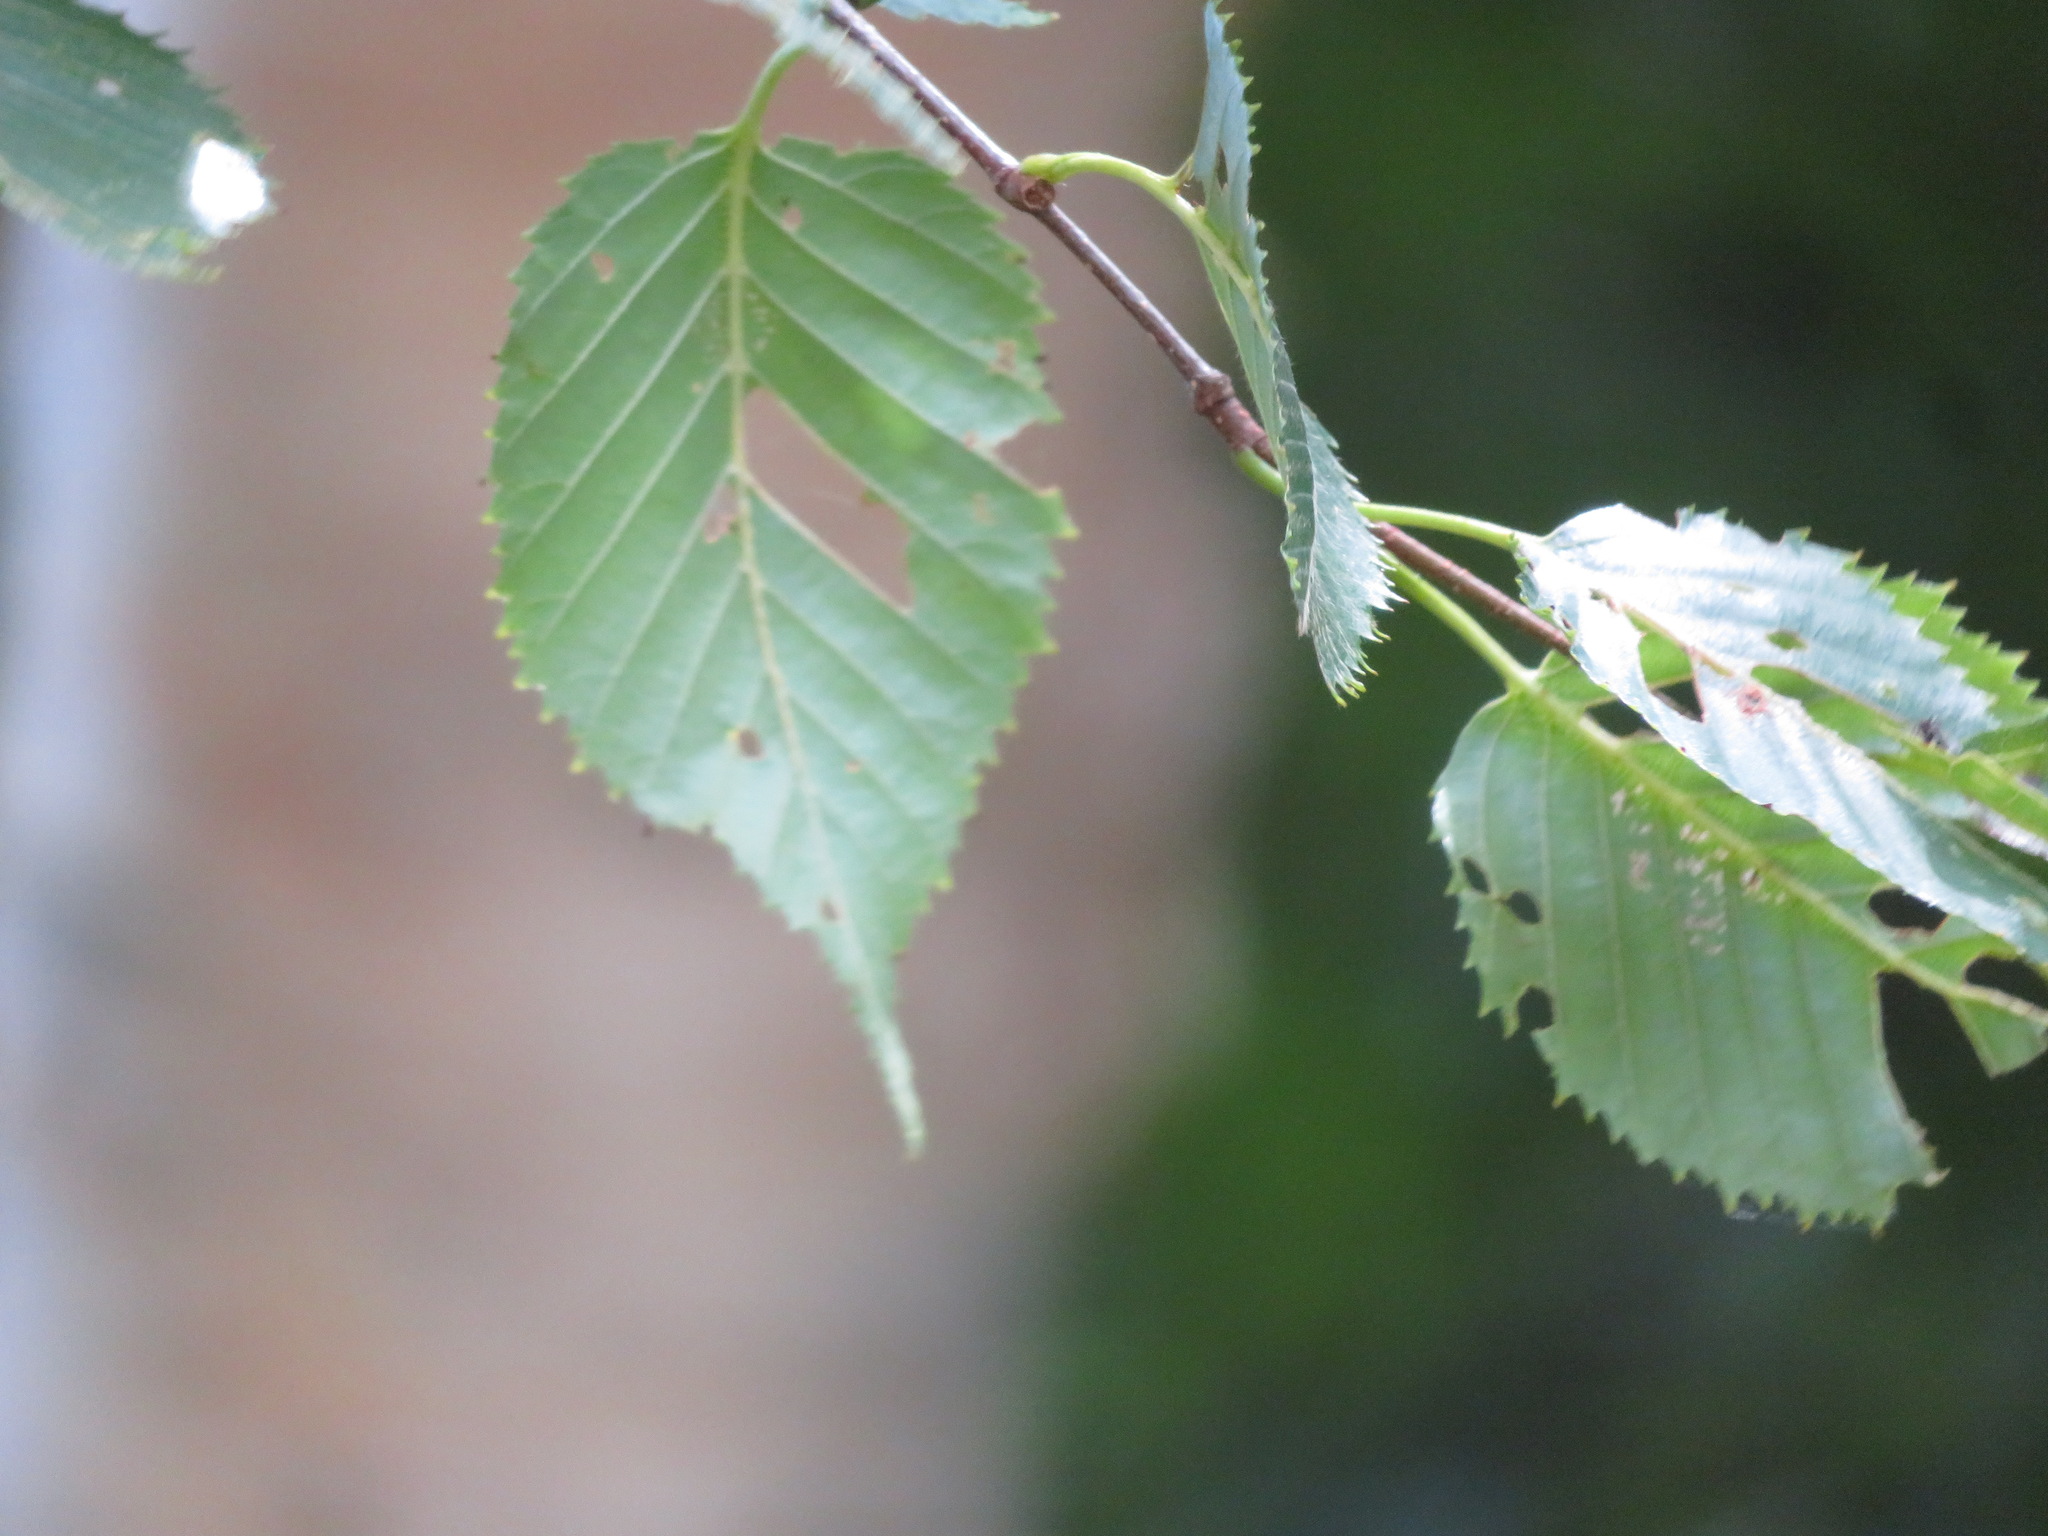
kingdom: Plantae
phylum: Tracheophyta
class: Magnoliopsida
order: Fagales
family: Betulaceae
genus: Betula
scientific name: Betula ermanii
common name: Erman's birch
